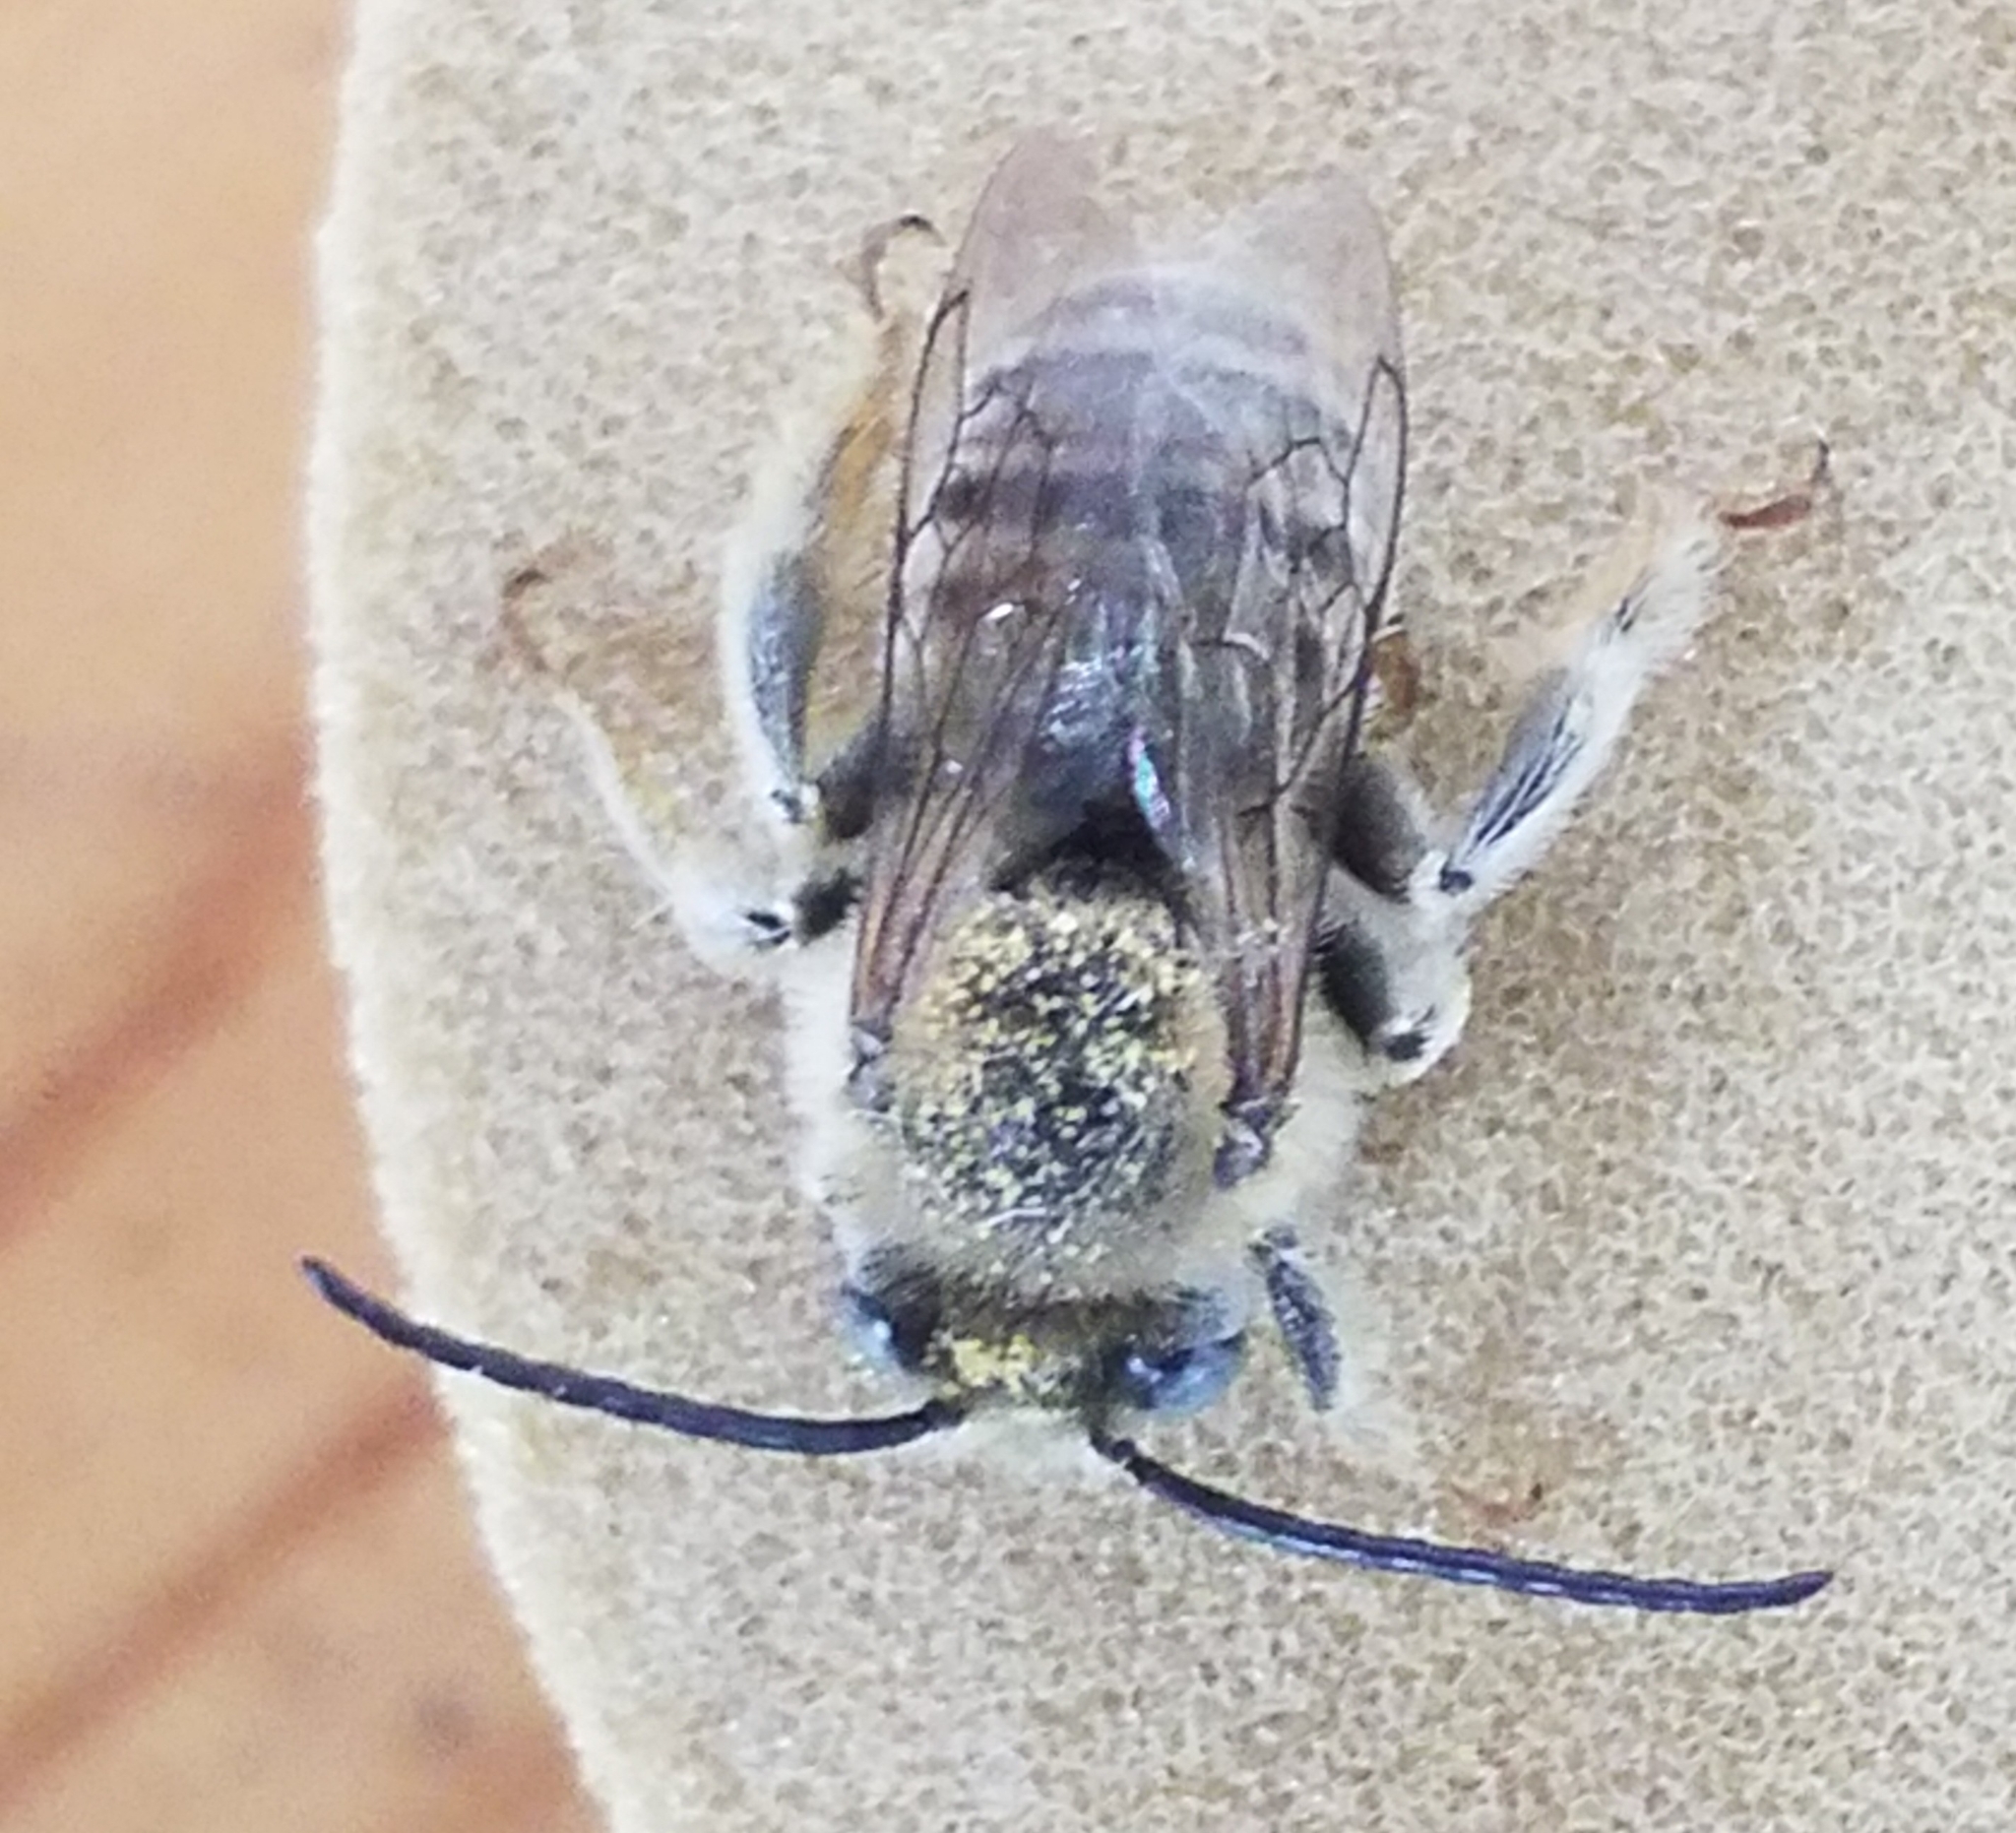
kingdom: Animalia
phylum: Arthropoda
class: Insecta
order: Hymenoptera
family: Apidae
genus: Tetralonia
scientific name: Tetralonia malvae
